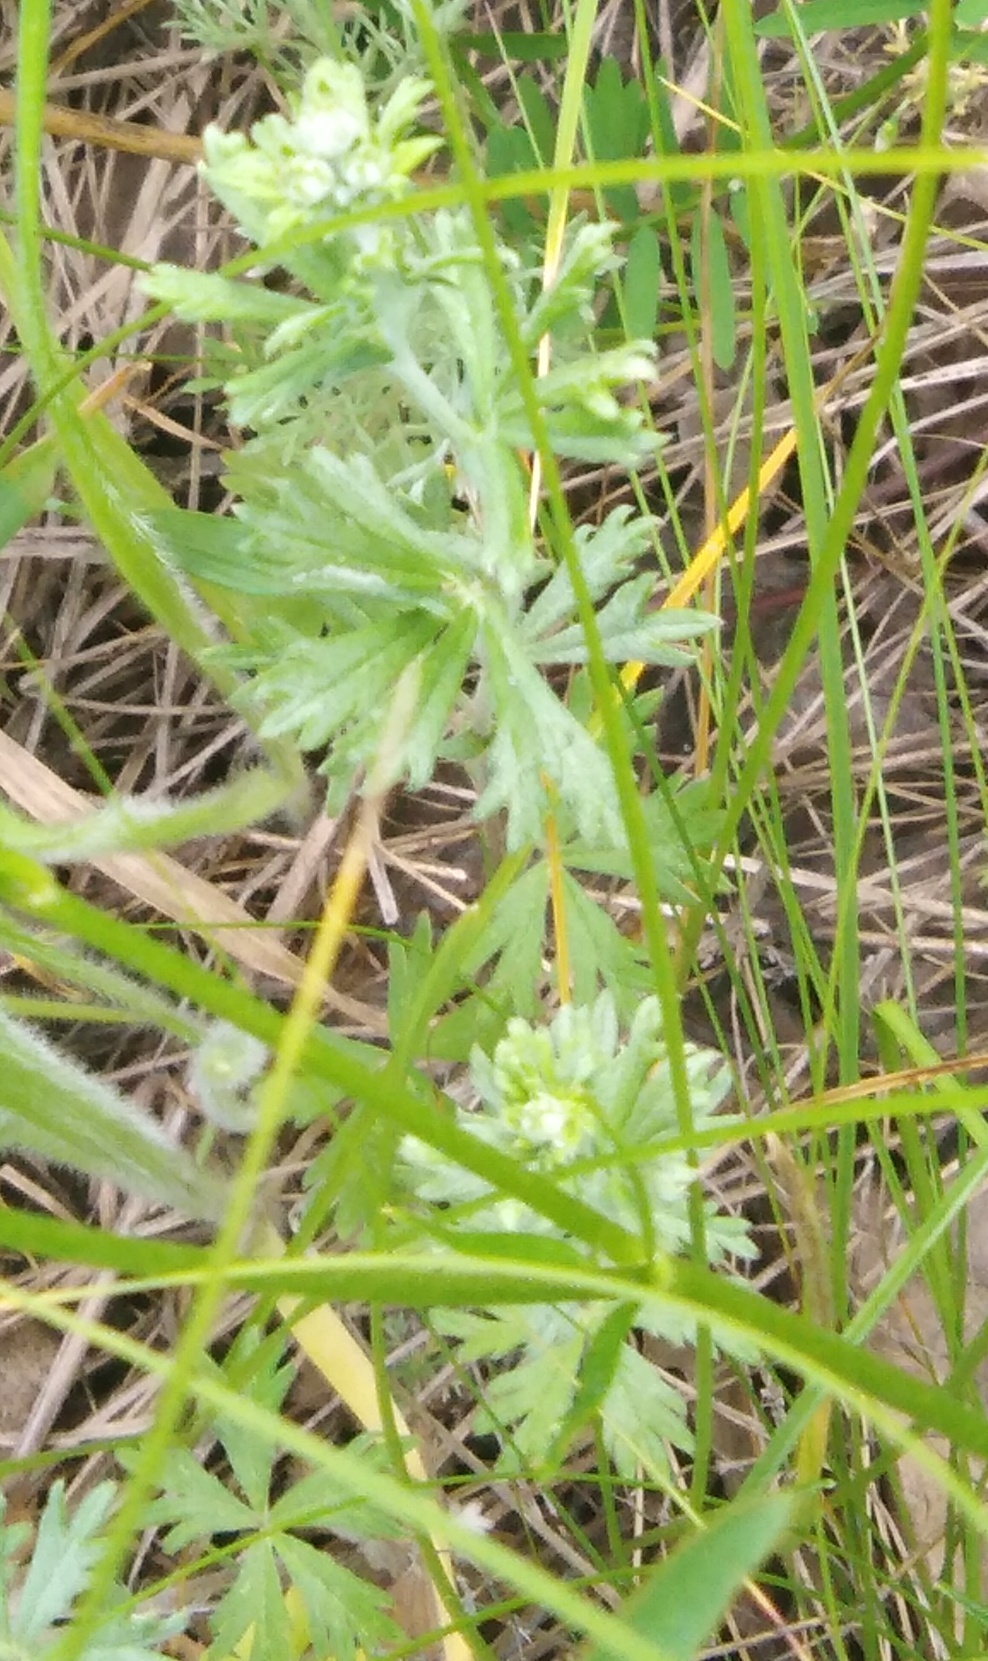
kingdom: Plantae
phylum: Tracheophyta
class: Magnoliopsida
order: Rosales
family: Rosaceae
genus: Potentilla
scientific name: Potentilla argentea
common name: Hoary cinquefoil
